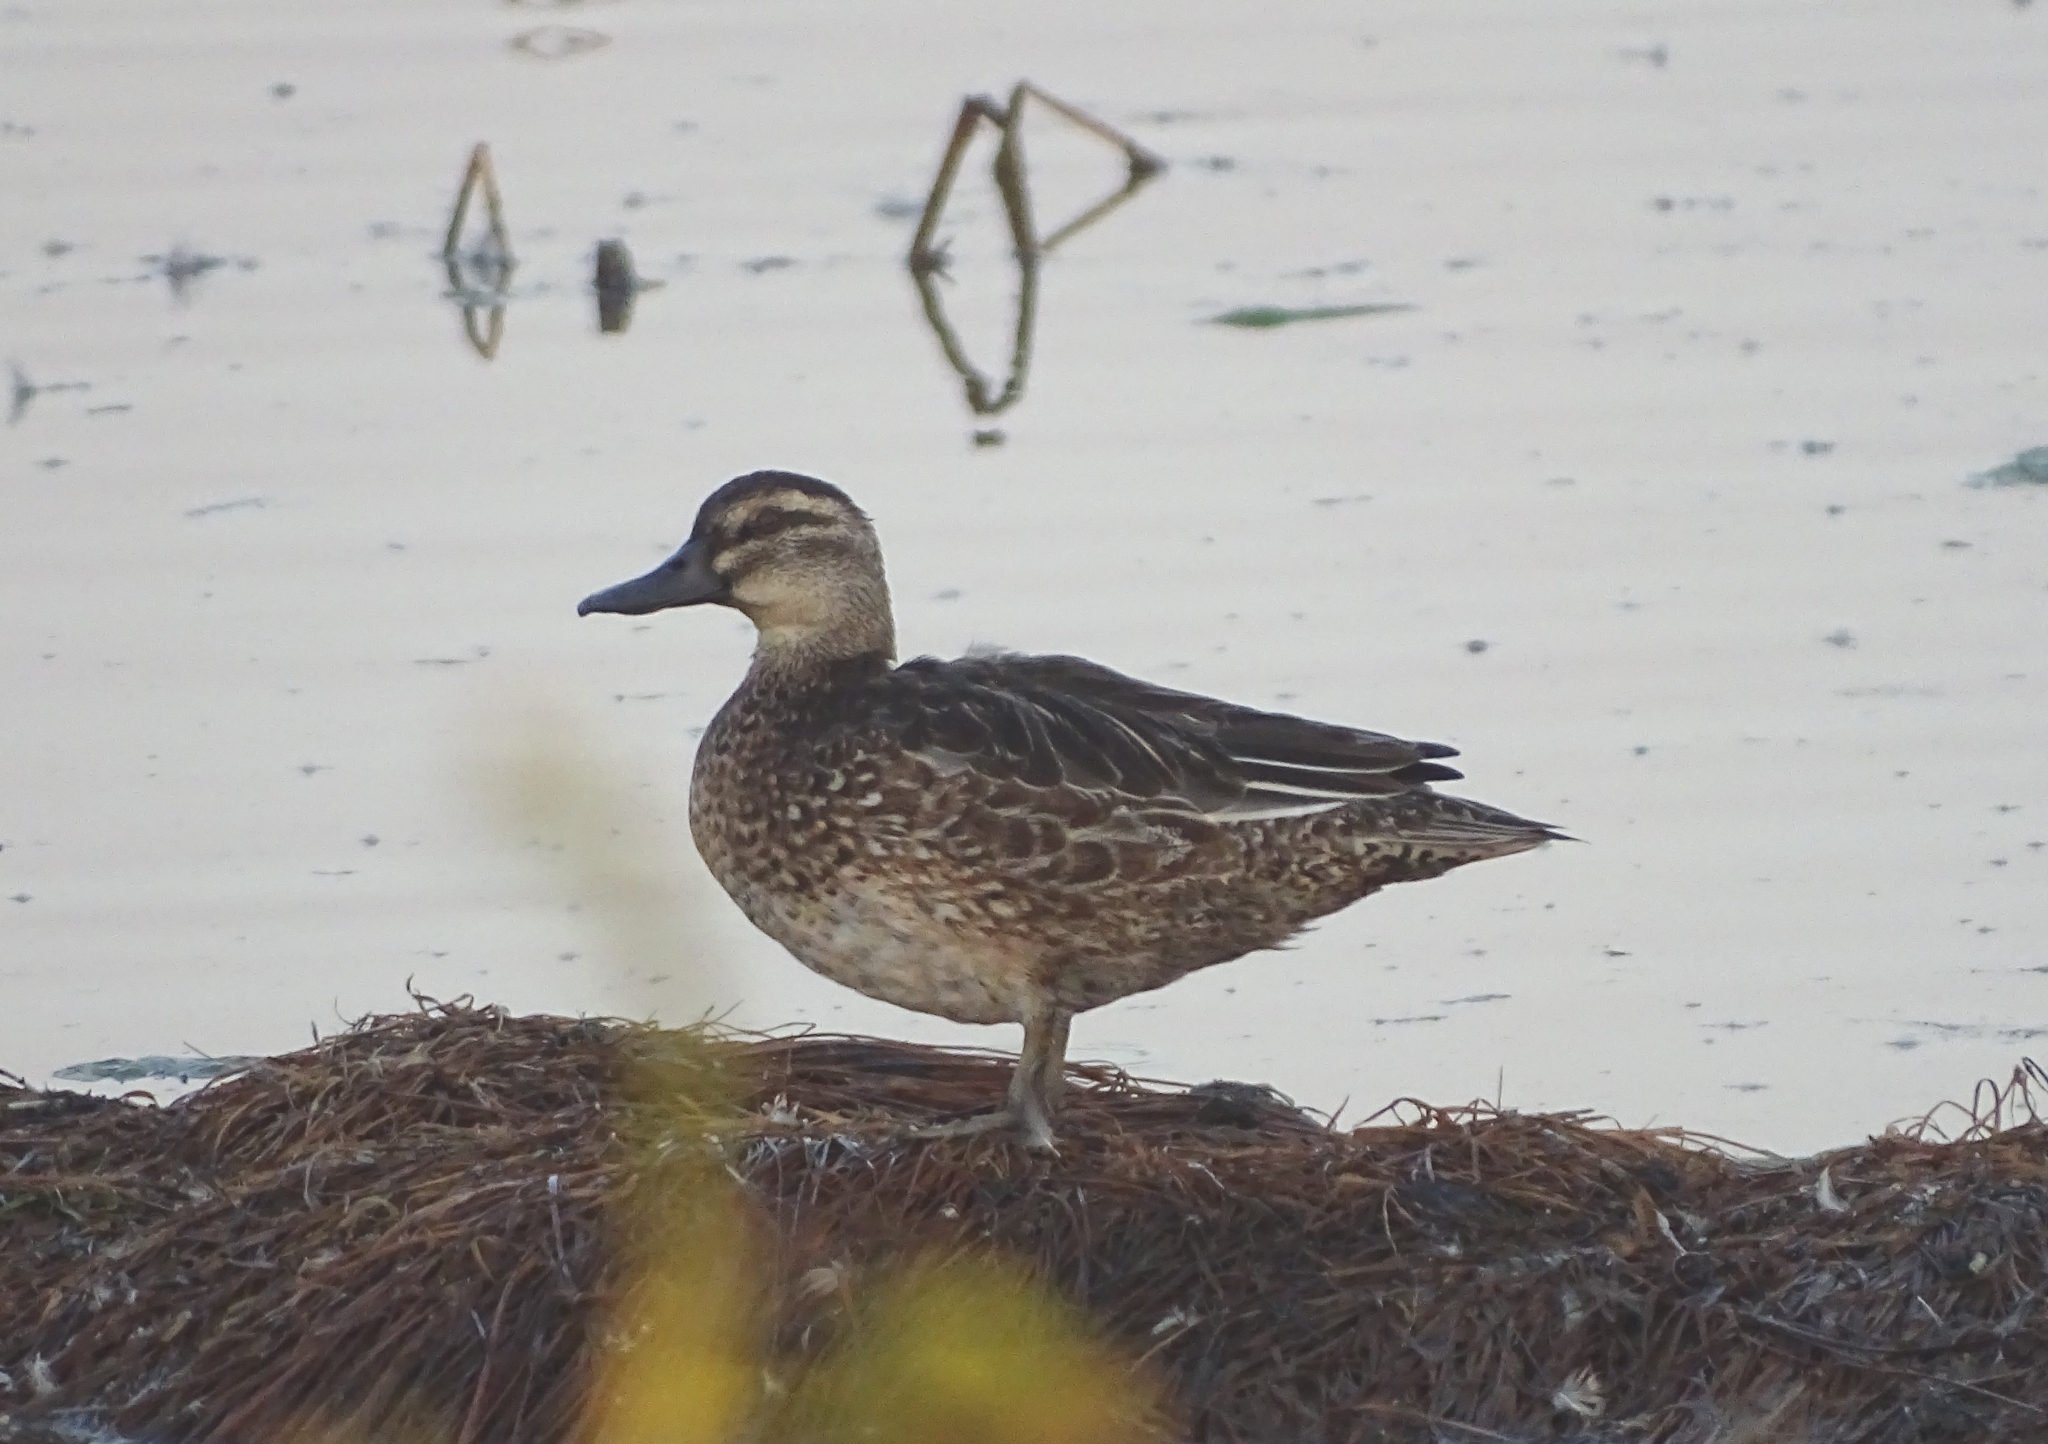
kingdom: Animalia
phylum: Chordata
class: Aves
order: Anseriformes
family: Anatidae
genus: Spatula
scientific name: Spatula querquedula
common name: Garganey
